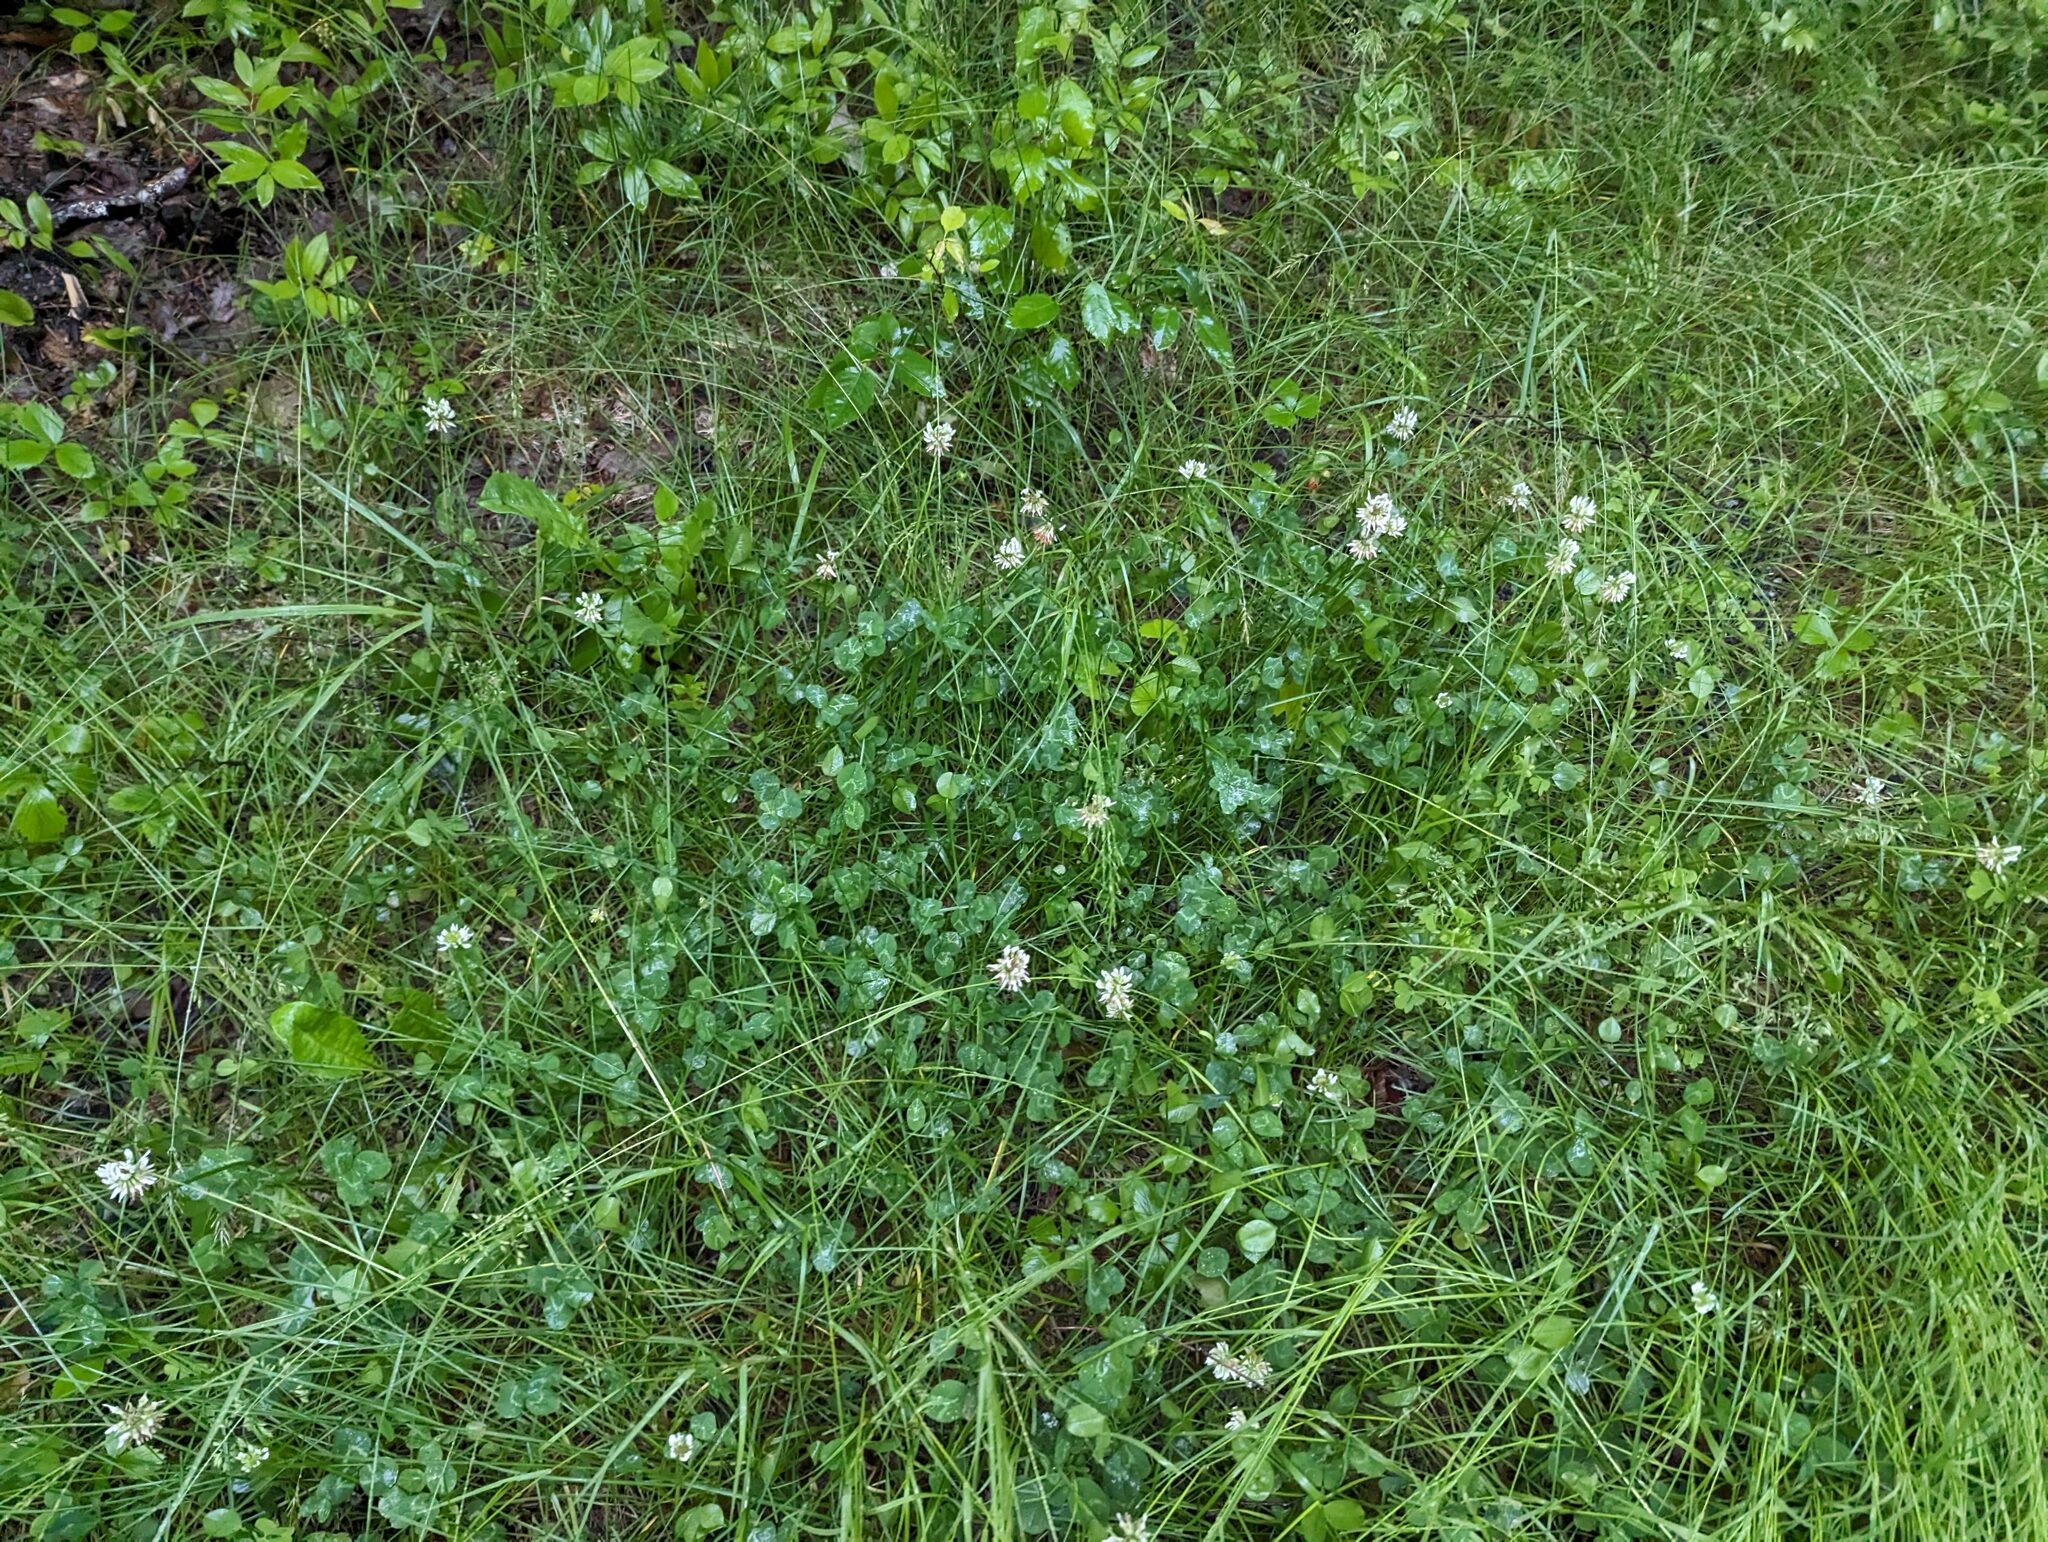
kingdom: Plantae
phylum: Tracheophyta
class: Magnoliopsida
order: Fabales
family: Fabaceae
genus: Trifolium
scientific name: Trifolium repens
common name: White clover
